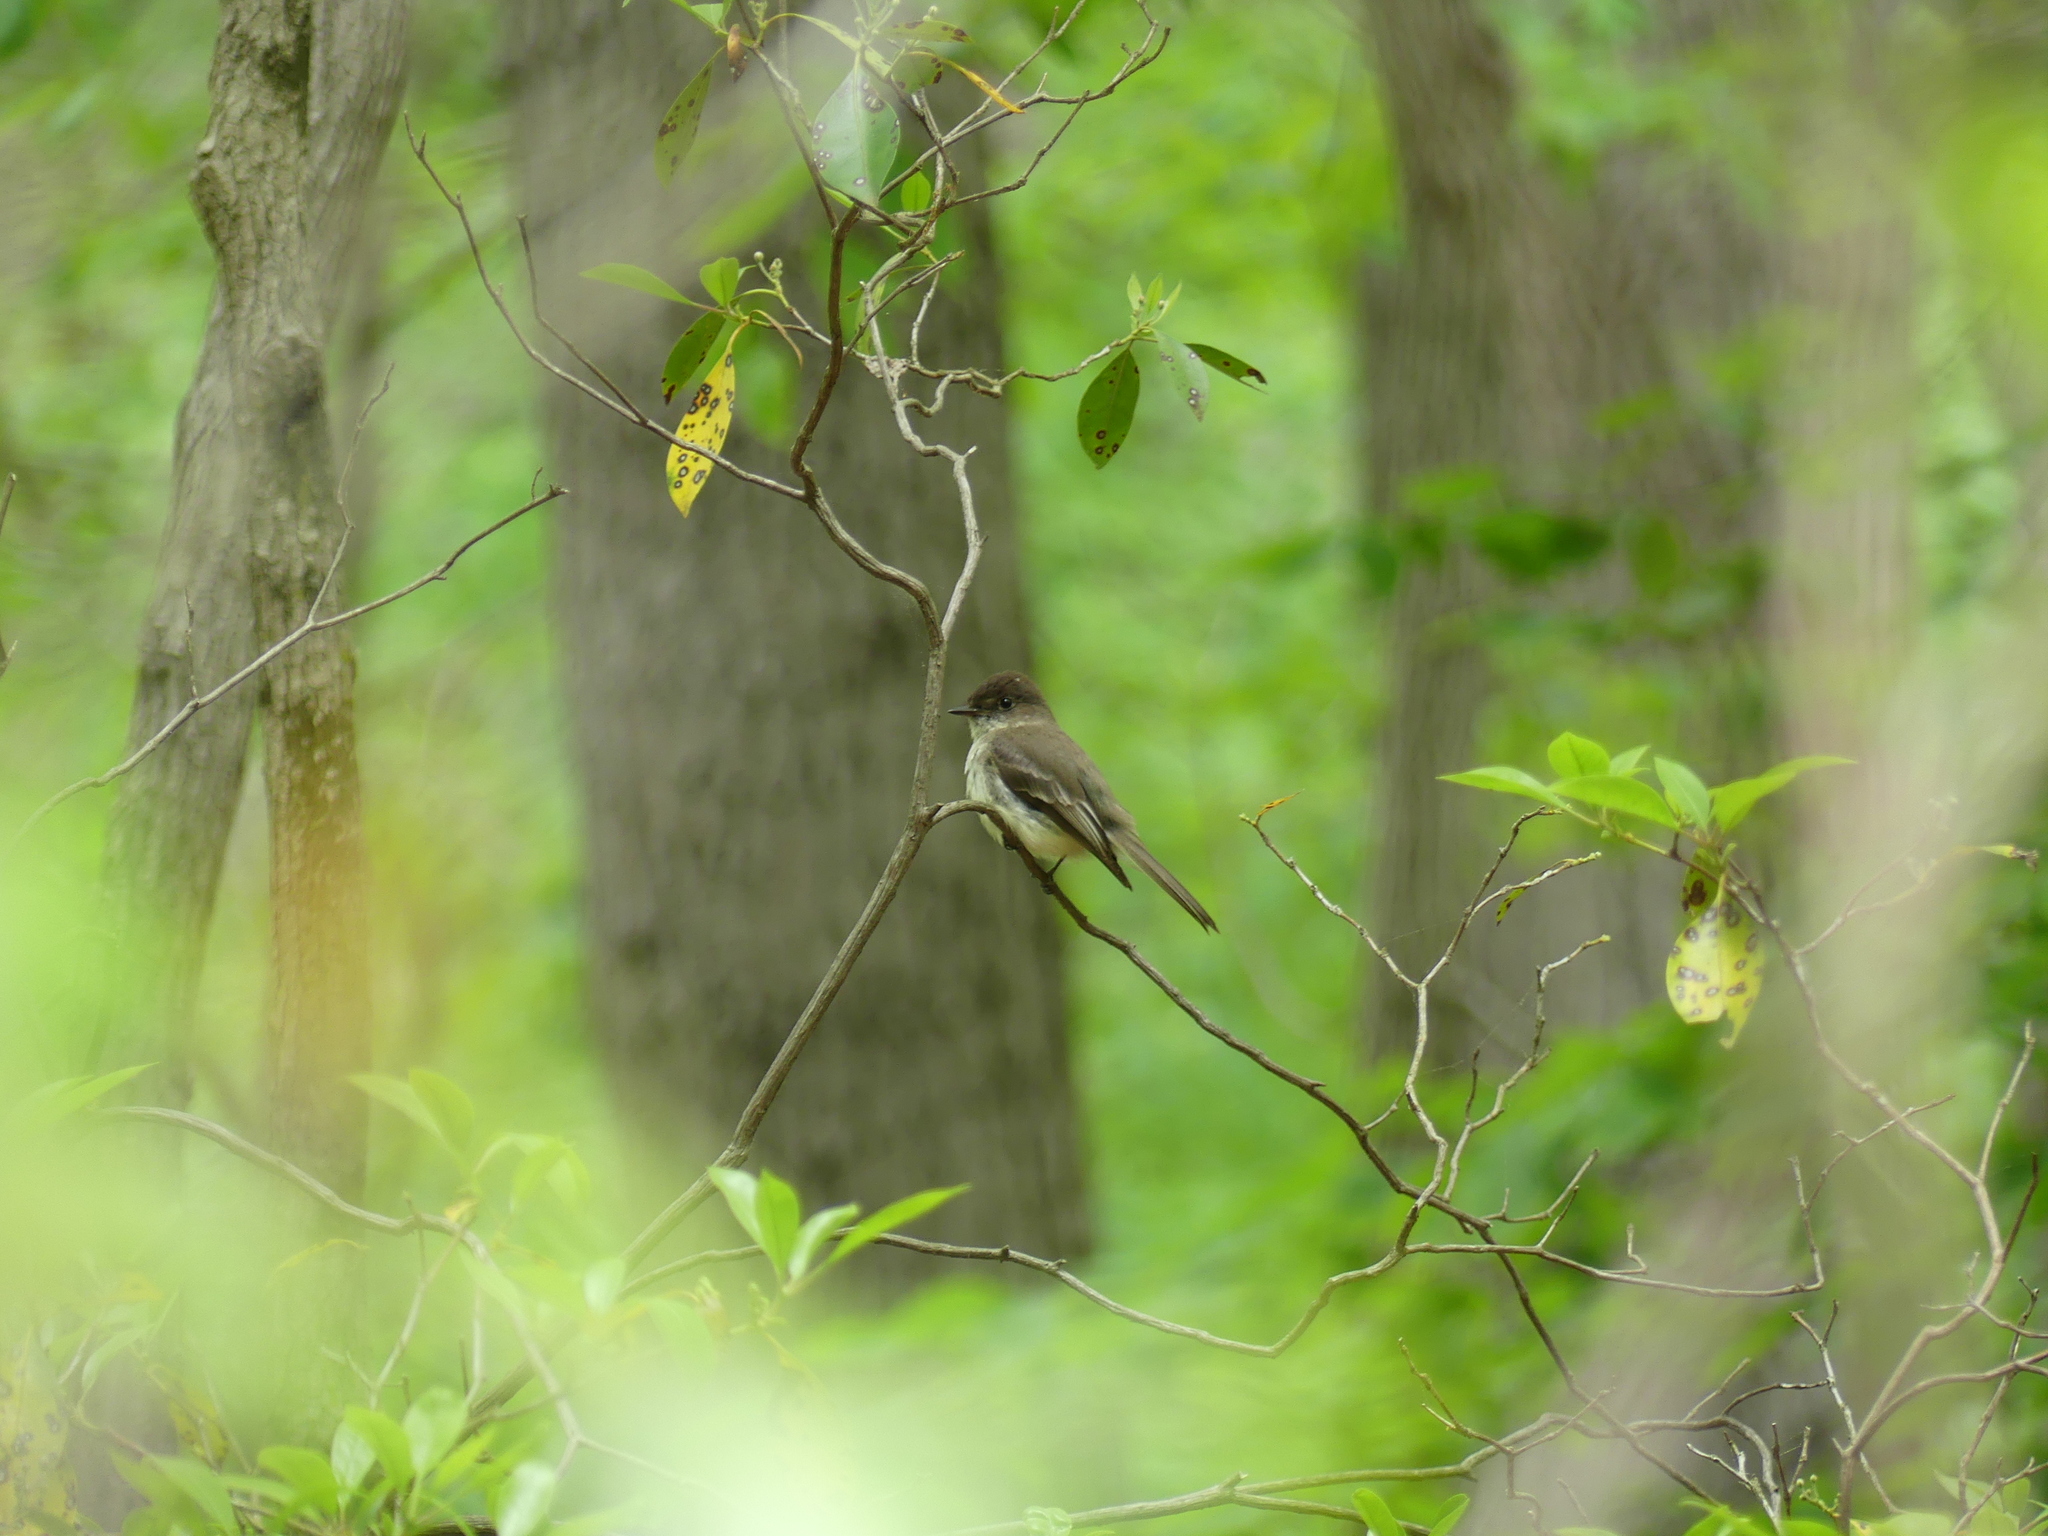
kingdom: Animalia
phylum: Chordata
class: Aves
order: Passeriformes
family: Tyrannidae
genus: Sayornis
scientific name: Sayornis phoebe
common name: Eastern phoebe
